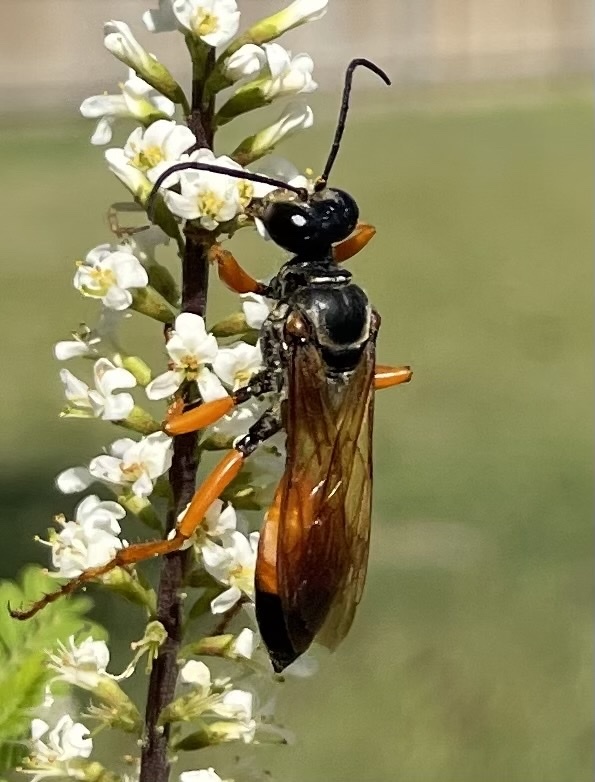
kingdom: Animalia
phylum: Arthropoda
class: Insecta
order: Hymenoptera
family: Sphecidae
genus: Sphex
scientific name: Sphex ichneumoneus
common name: Great golden digger wasp
